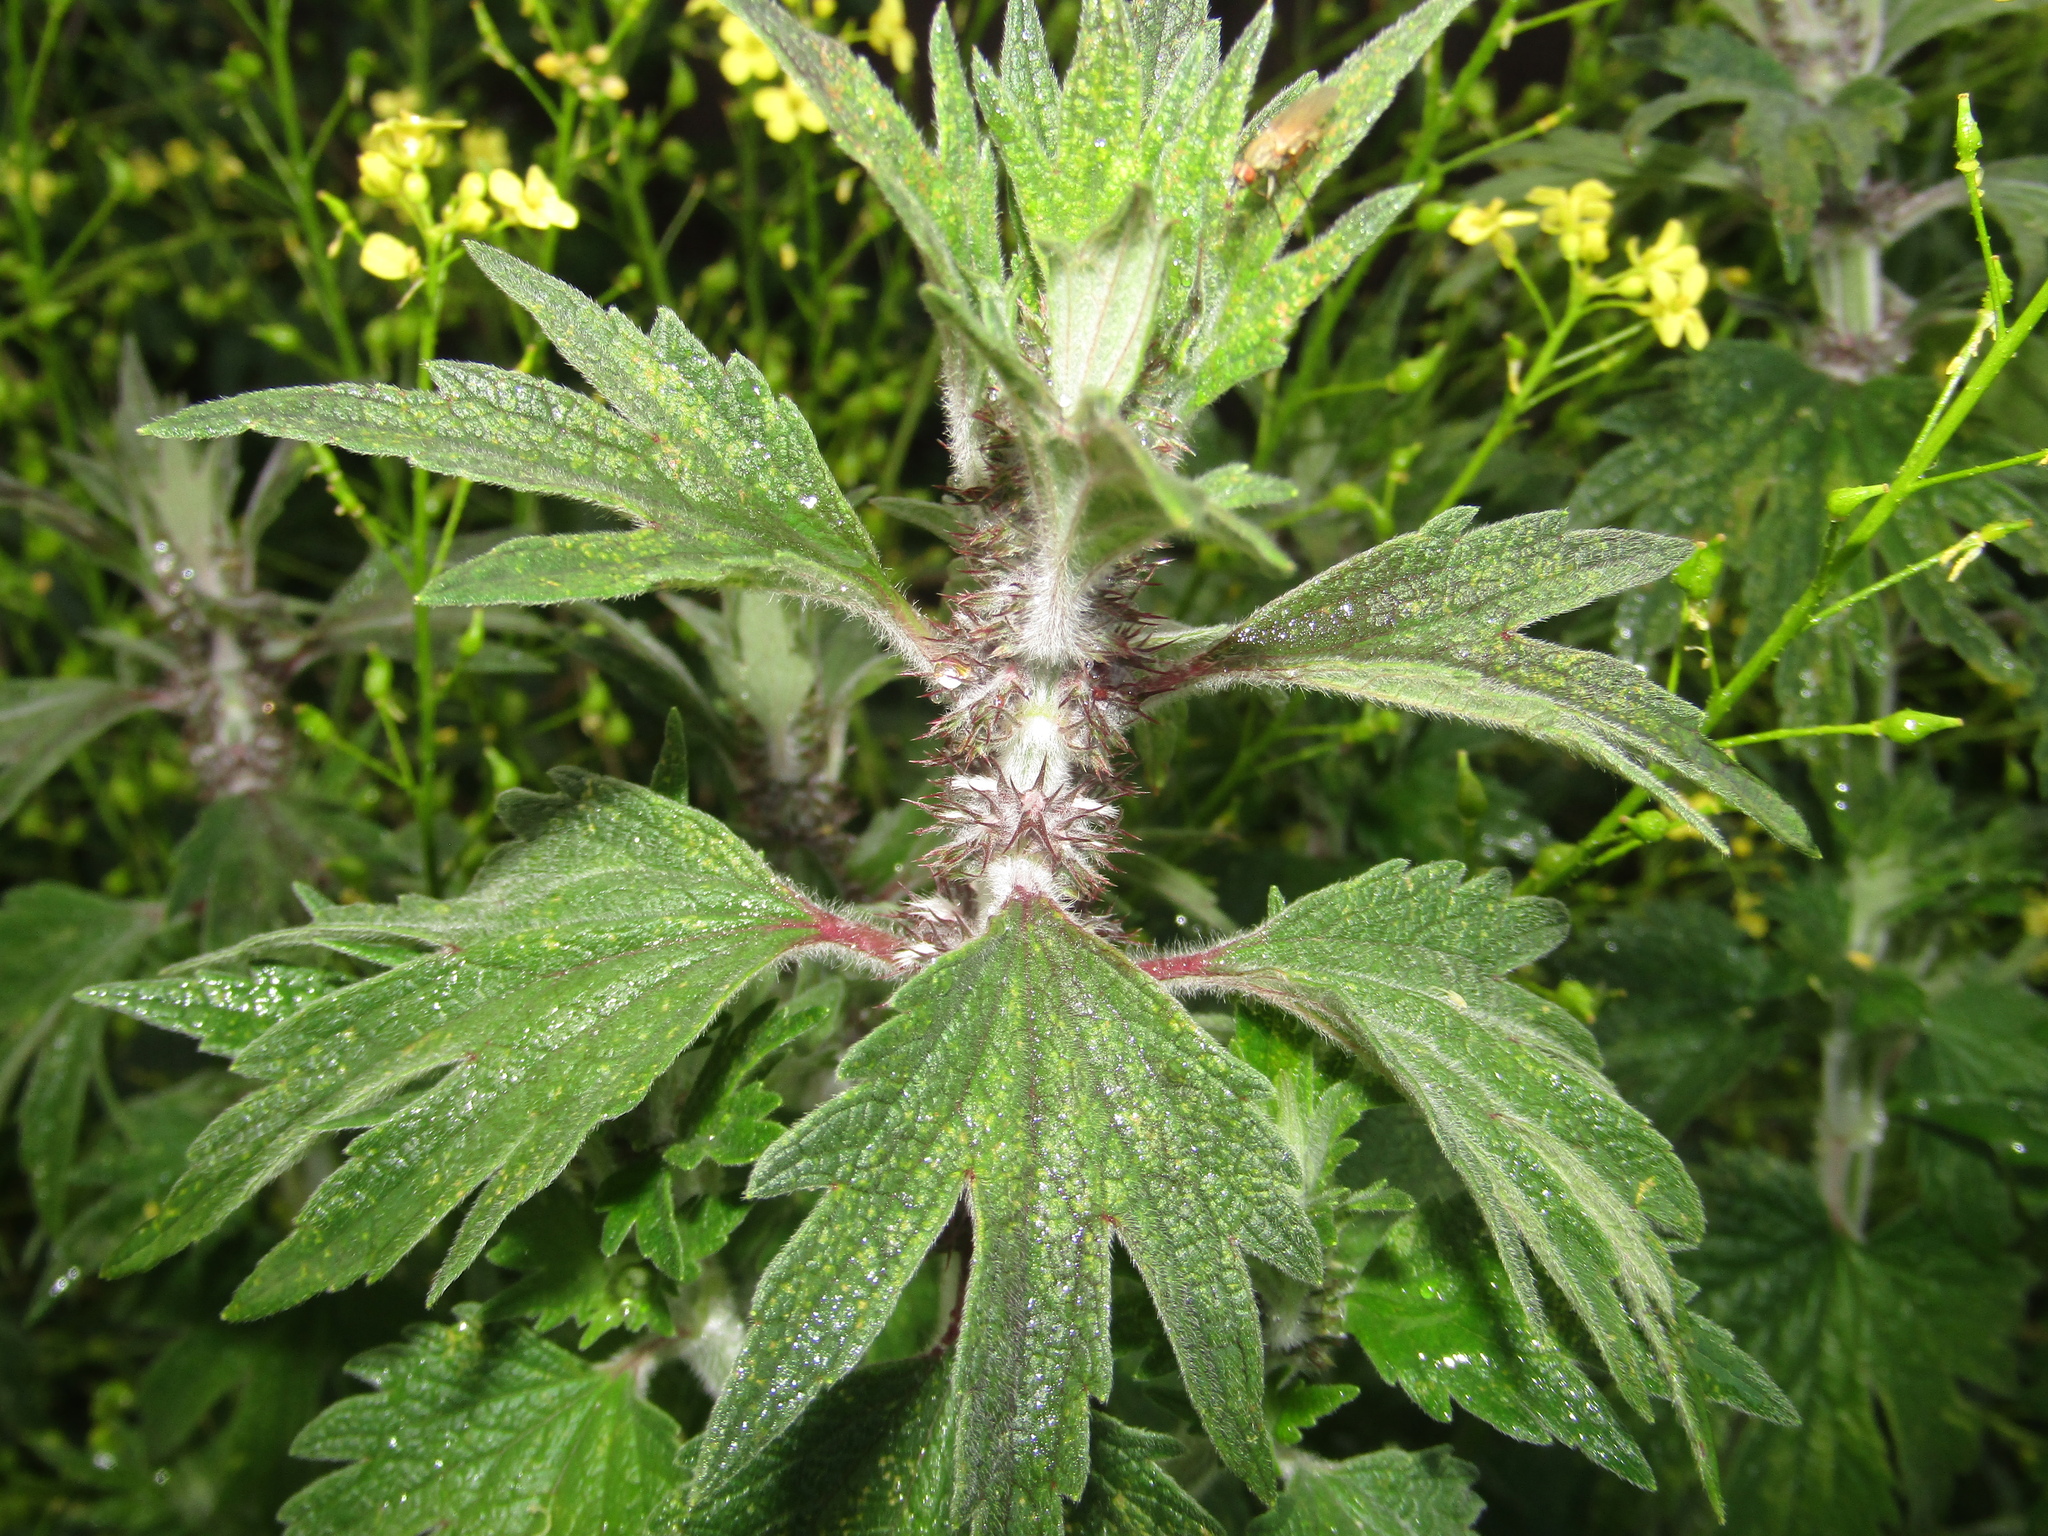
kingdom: Plantae
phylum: Tracheophyta
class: Magnoliopsida
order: Lamiales
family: Lamiaceae
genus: Leonurus
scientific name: Leonurus quinquelobatus
